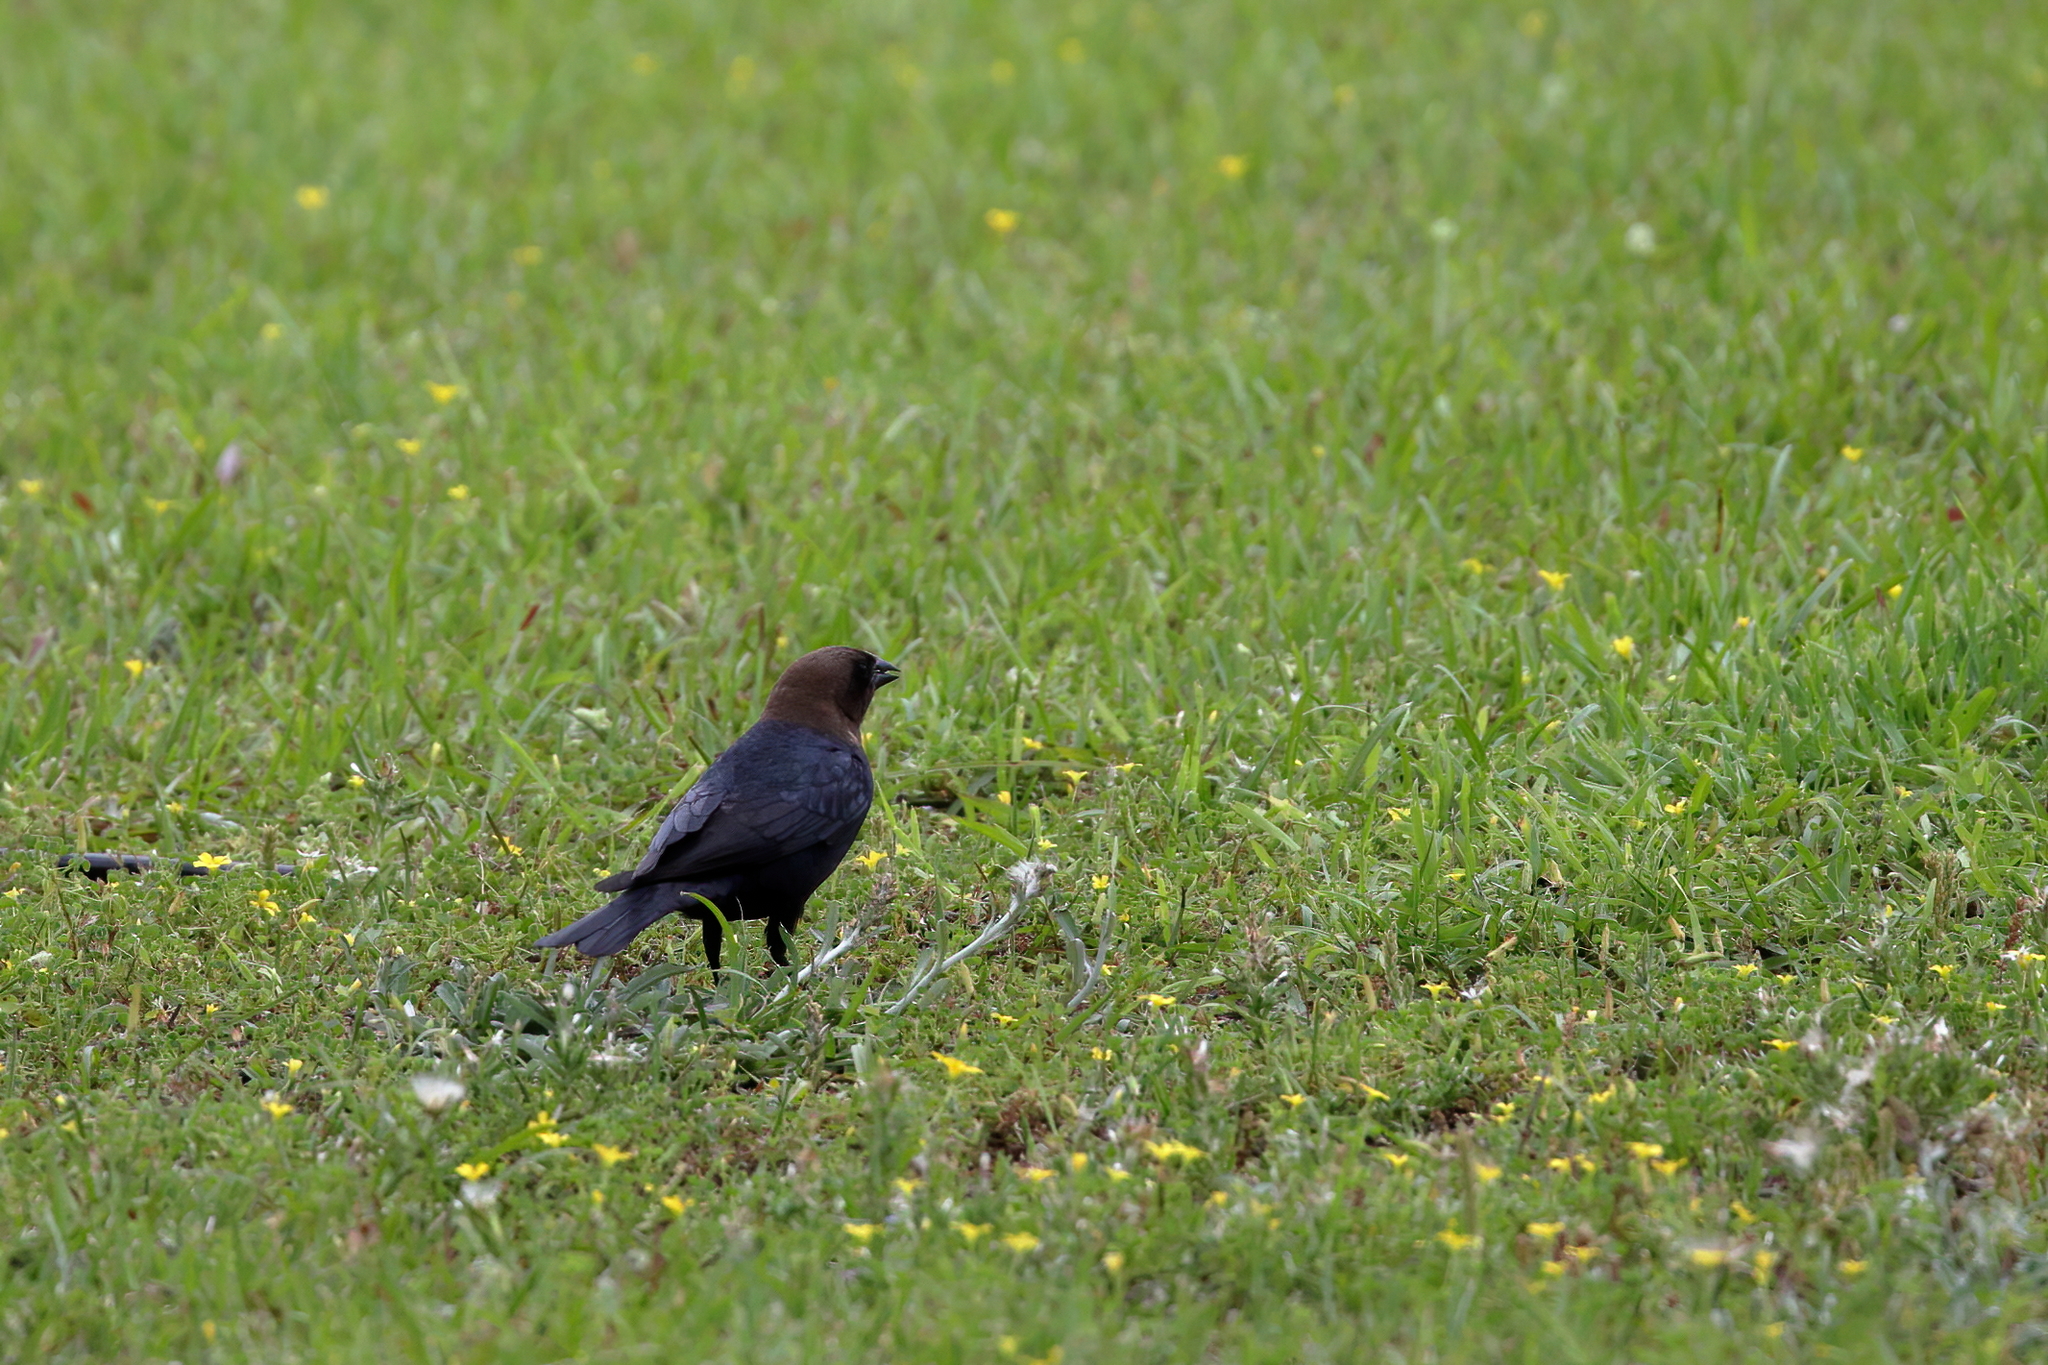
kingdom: Animalia
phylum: Chordata
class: Aves
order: Passeriformes
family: Icteridae
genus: Molothrus
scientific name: Molothrus ater
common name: Brown-headed cowbird
